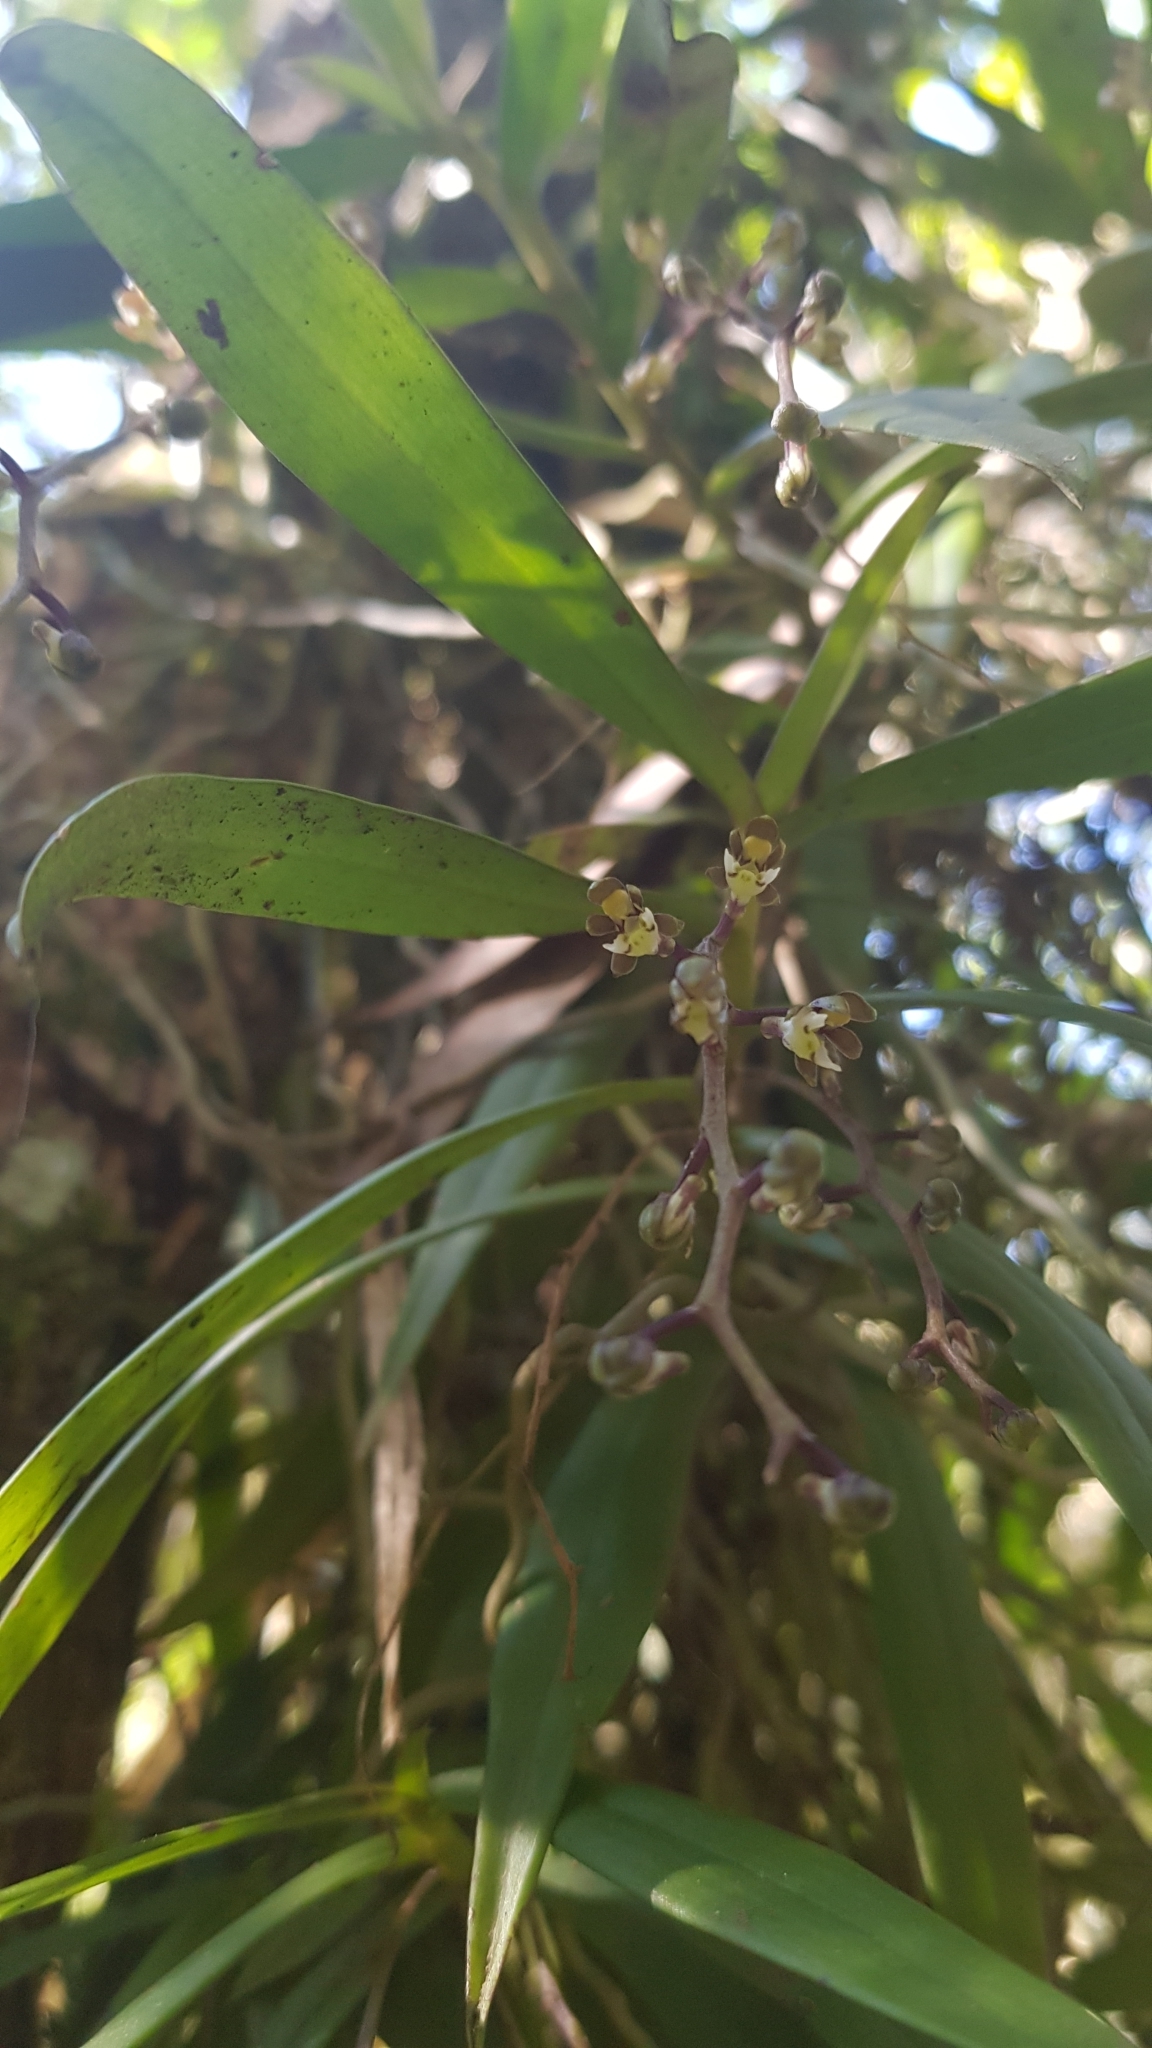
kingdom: Plantae
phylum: Tracheophyta
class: Liliopsida
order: Asparagales
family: Orchidaceae
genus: Plectorrhiza
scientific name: Plectorrhiza tridentata
